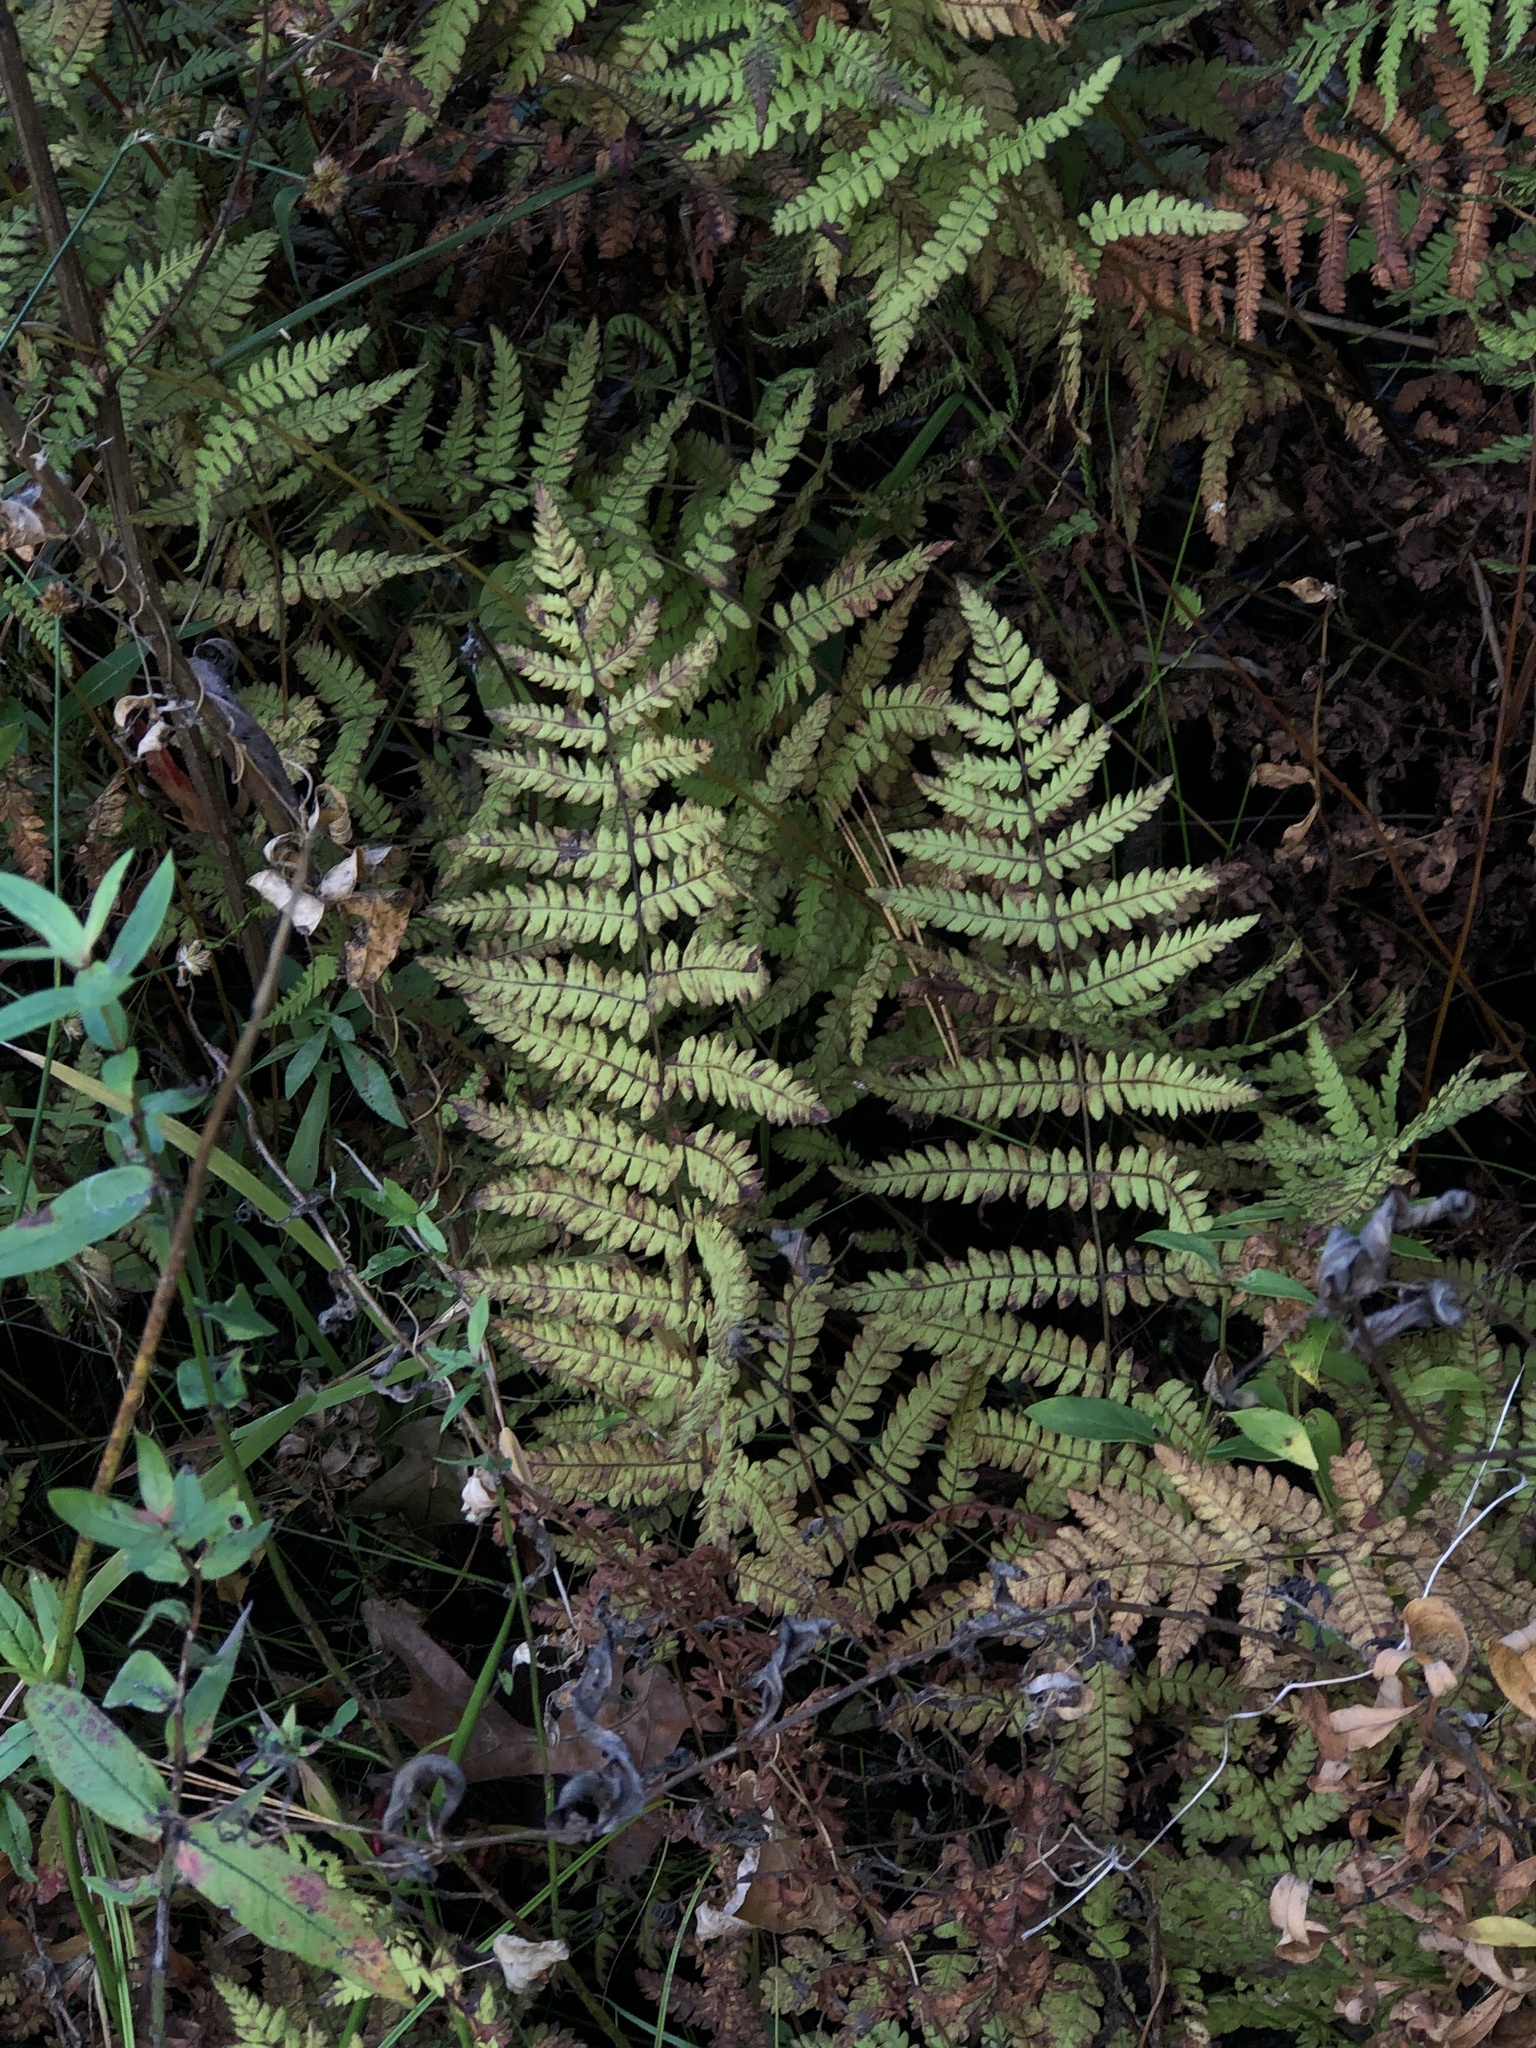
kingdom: Plantae
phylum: Tracheophyta
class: Polypodiopsida
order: Polypodiales
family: Thelypteridaceae
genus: Thelypteris
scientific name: Thelypteris palustris
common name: Marsh fern
